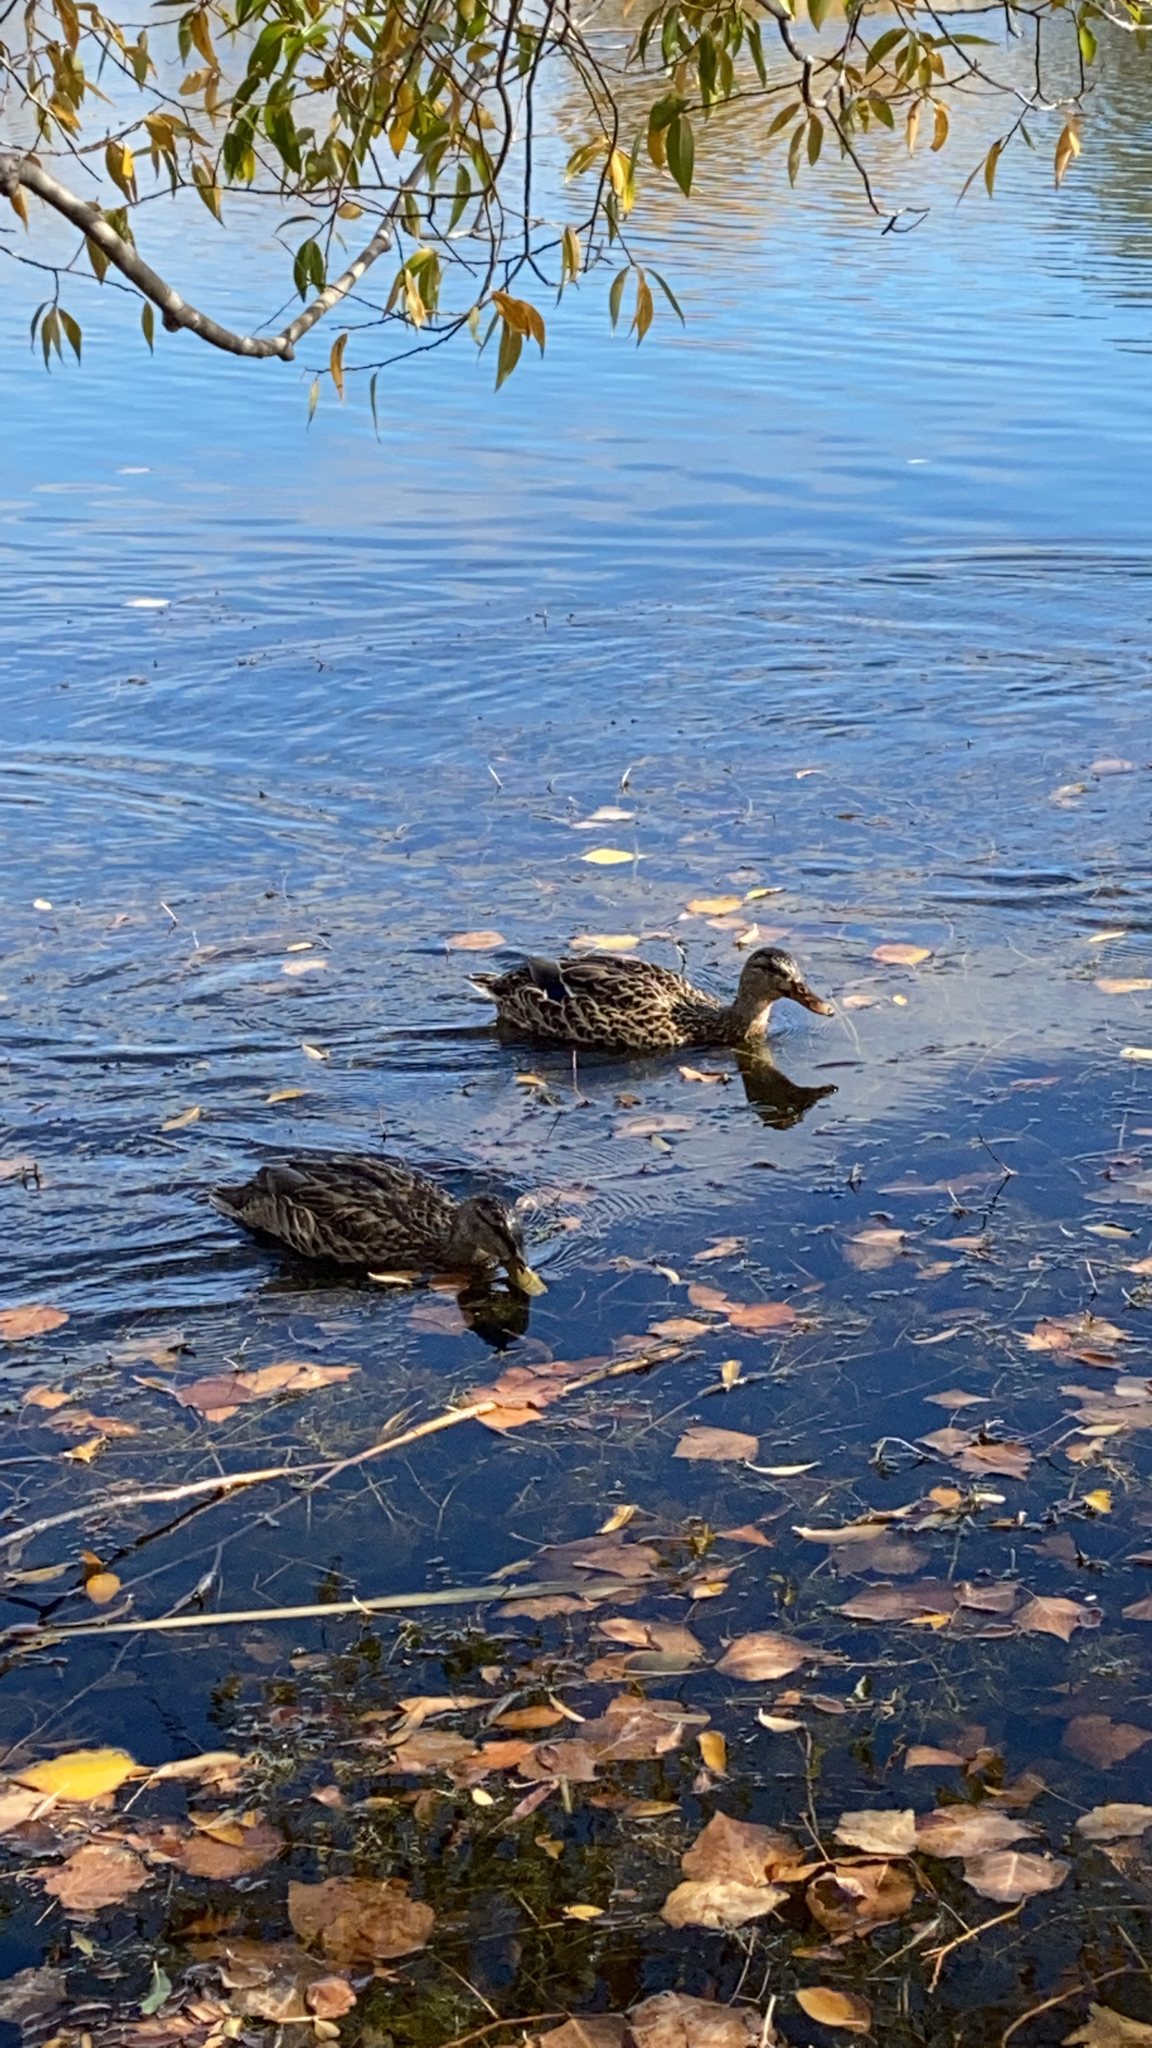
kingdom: Animalia
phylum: Chordata
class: Aves
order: Anseriformes
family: Anatidae
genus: Anas
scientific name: Anas platyrhynchos
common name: Mallard
